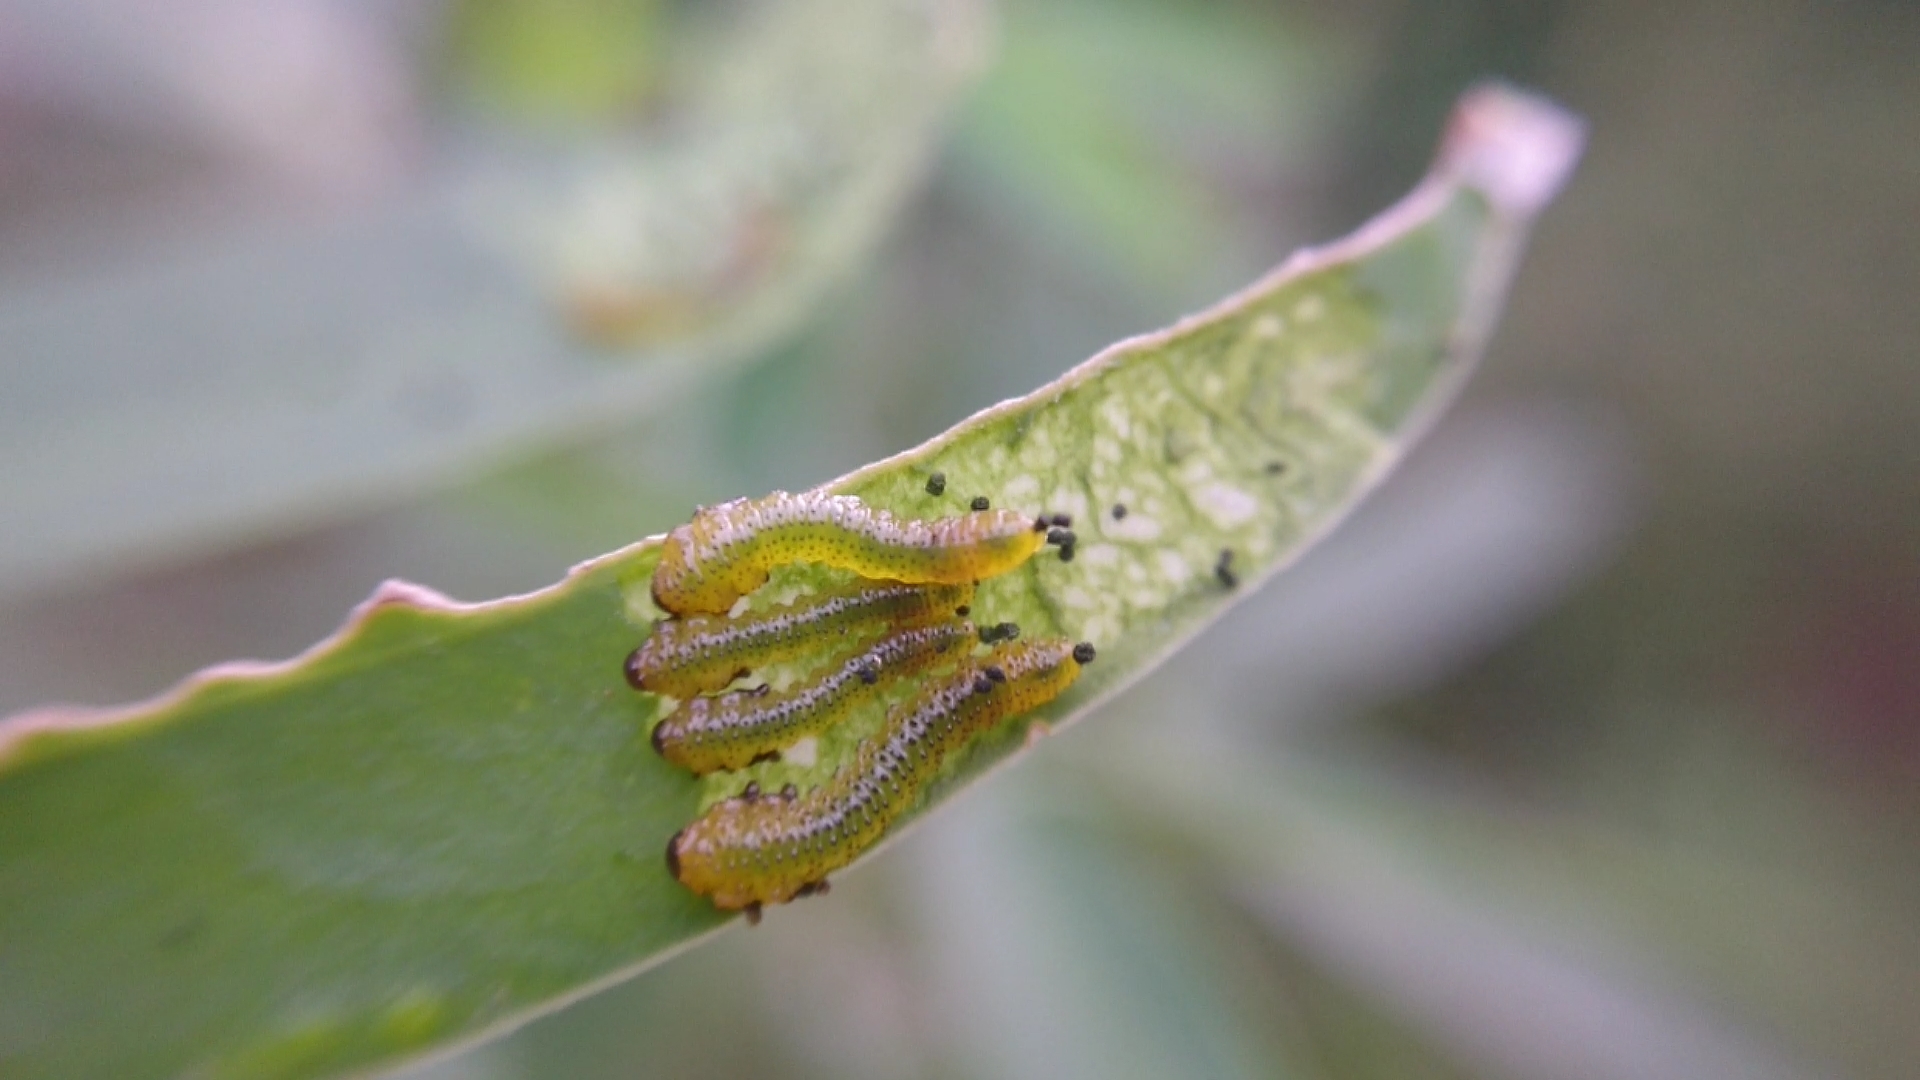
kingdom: Animalia
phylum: Arthropoda
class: Insecta
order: Hymenoptera
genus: Adurgoa
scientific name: Adurgoa
